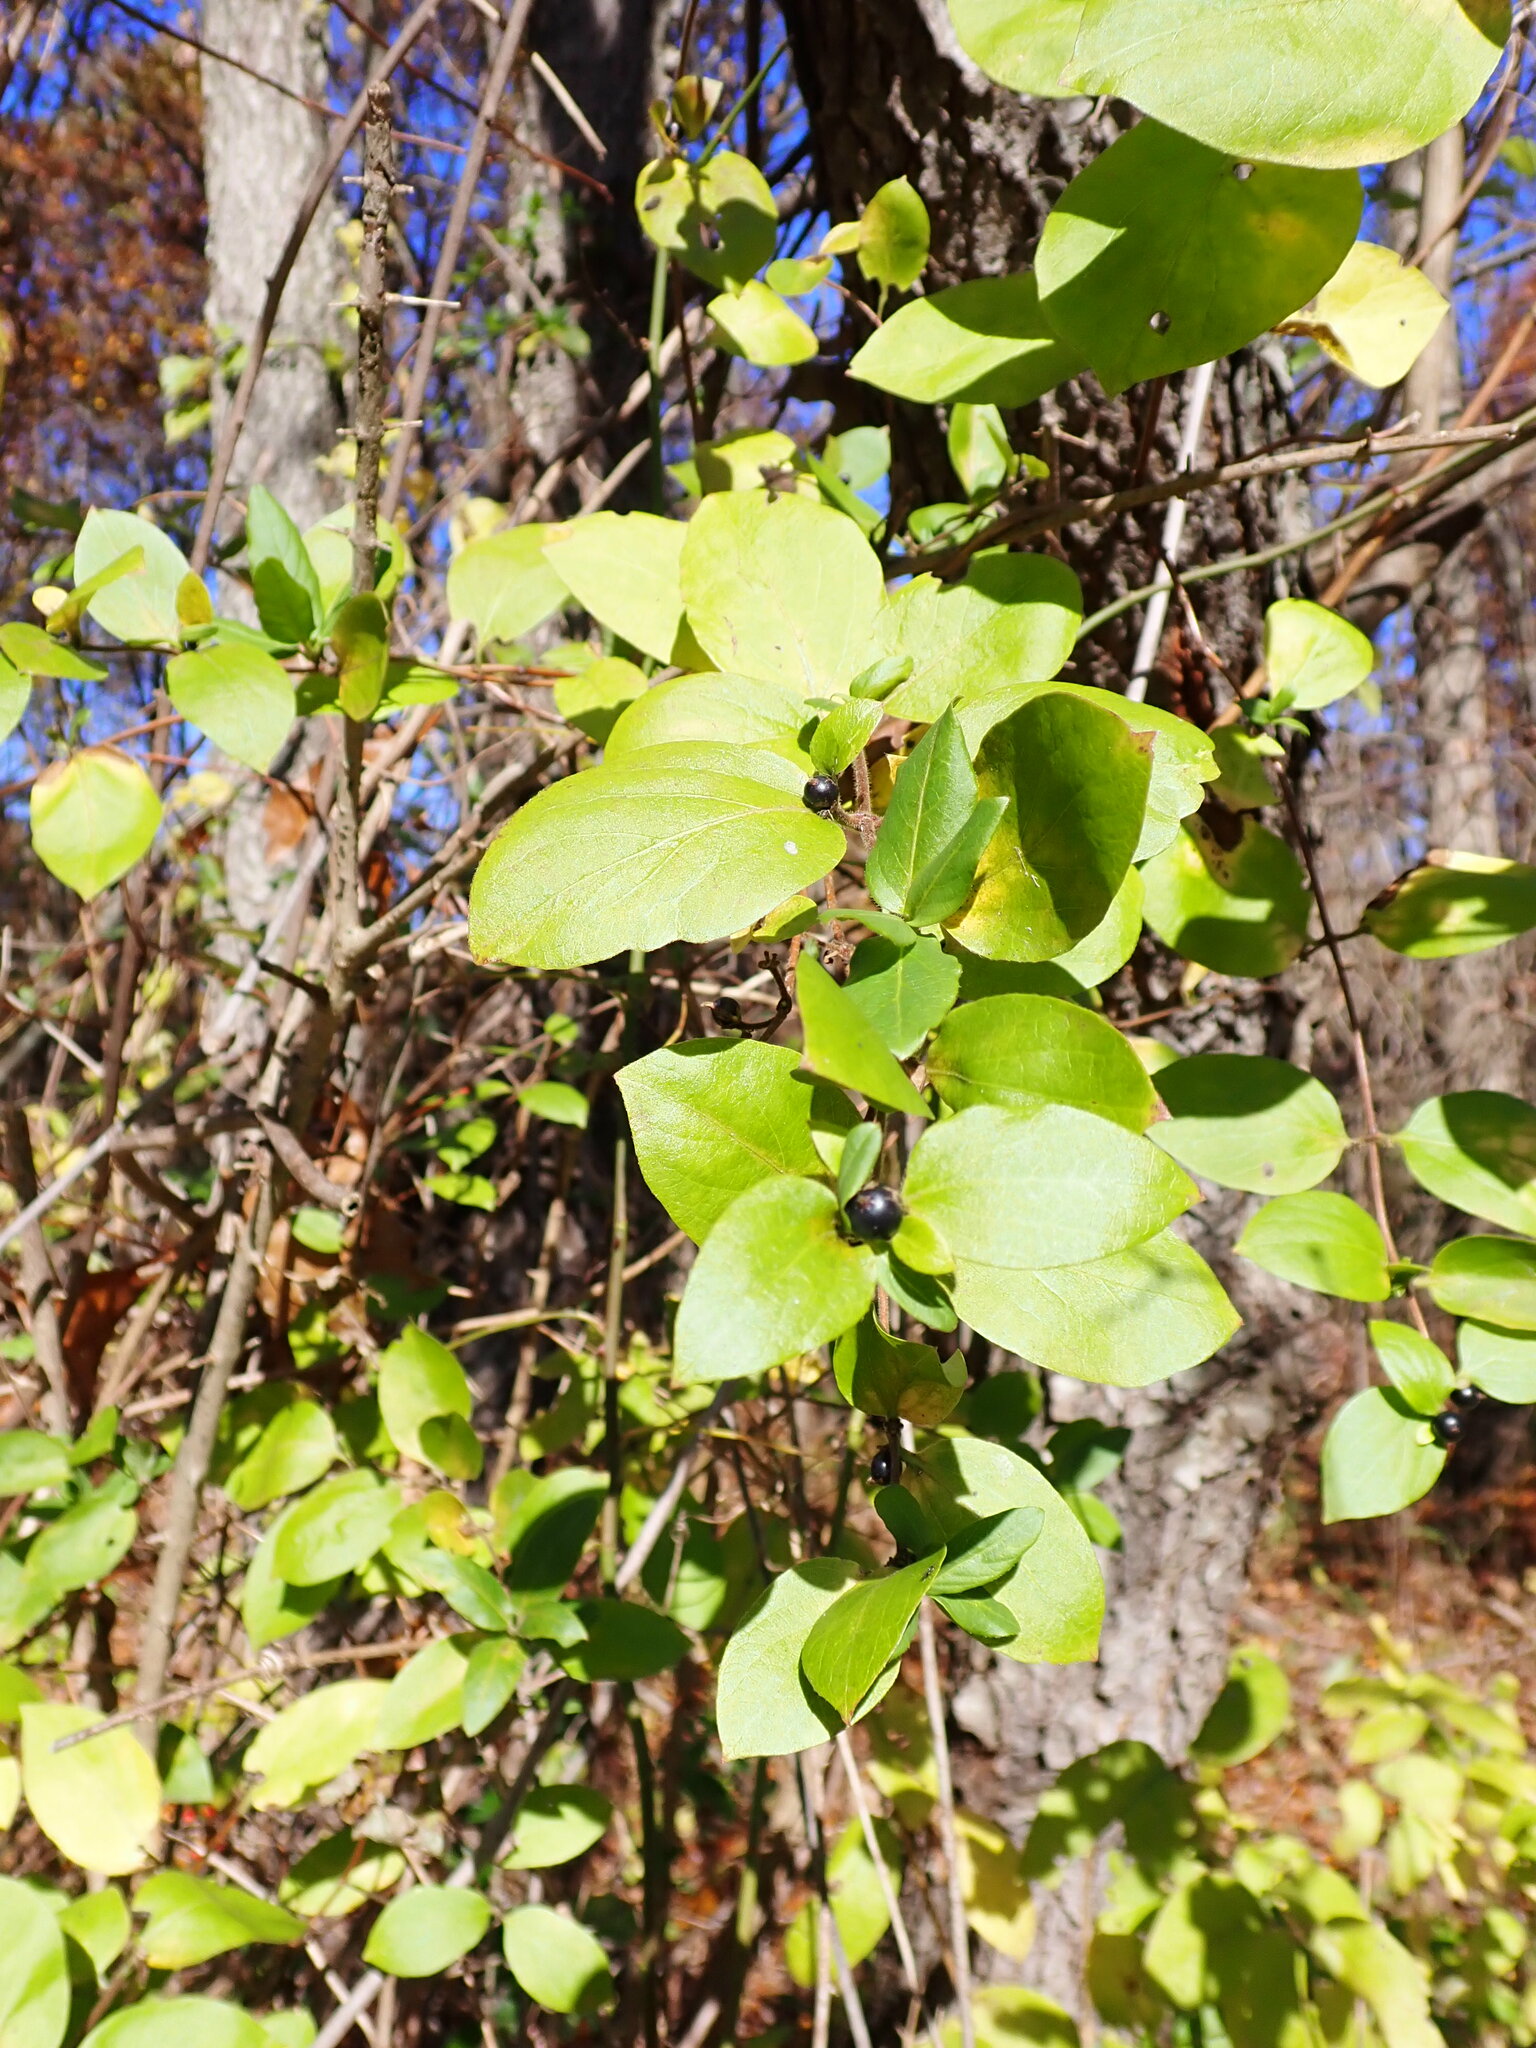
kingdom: Plantae
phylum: Tracheophyta
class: Magnoliopsida
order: Dipsacales
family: Caprifoliaceae
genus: Lonicera
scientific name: Lonicera japonica
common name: Japanese honeysuckle
